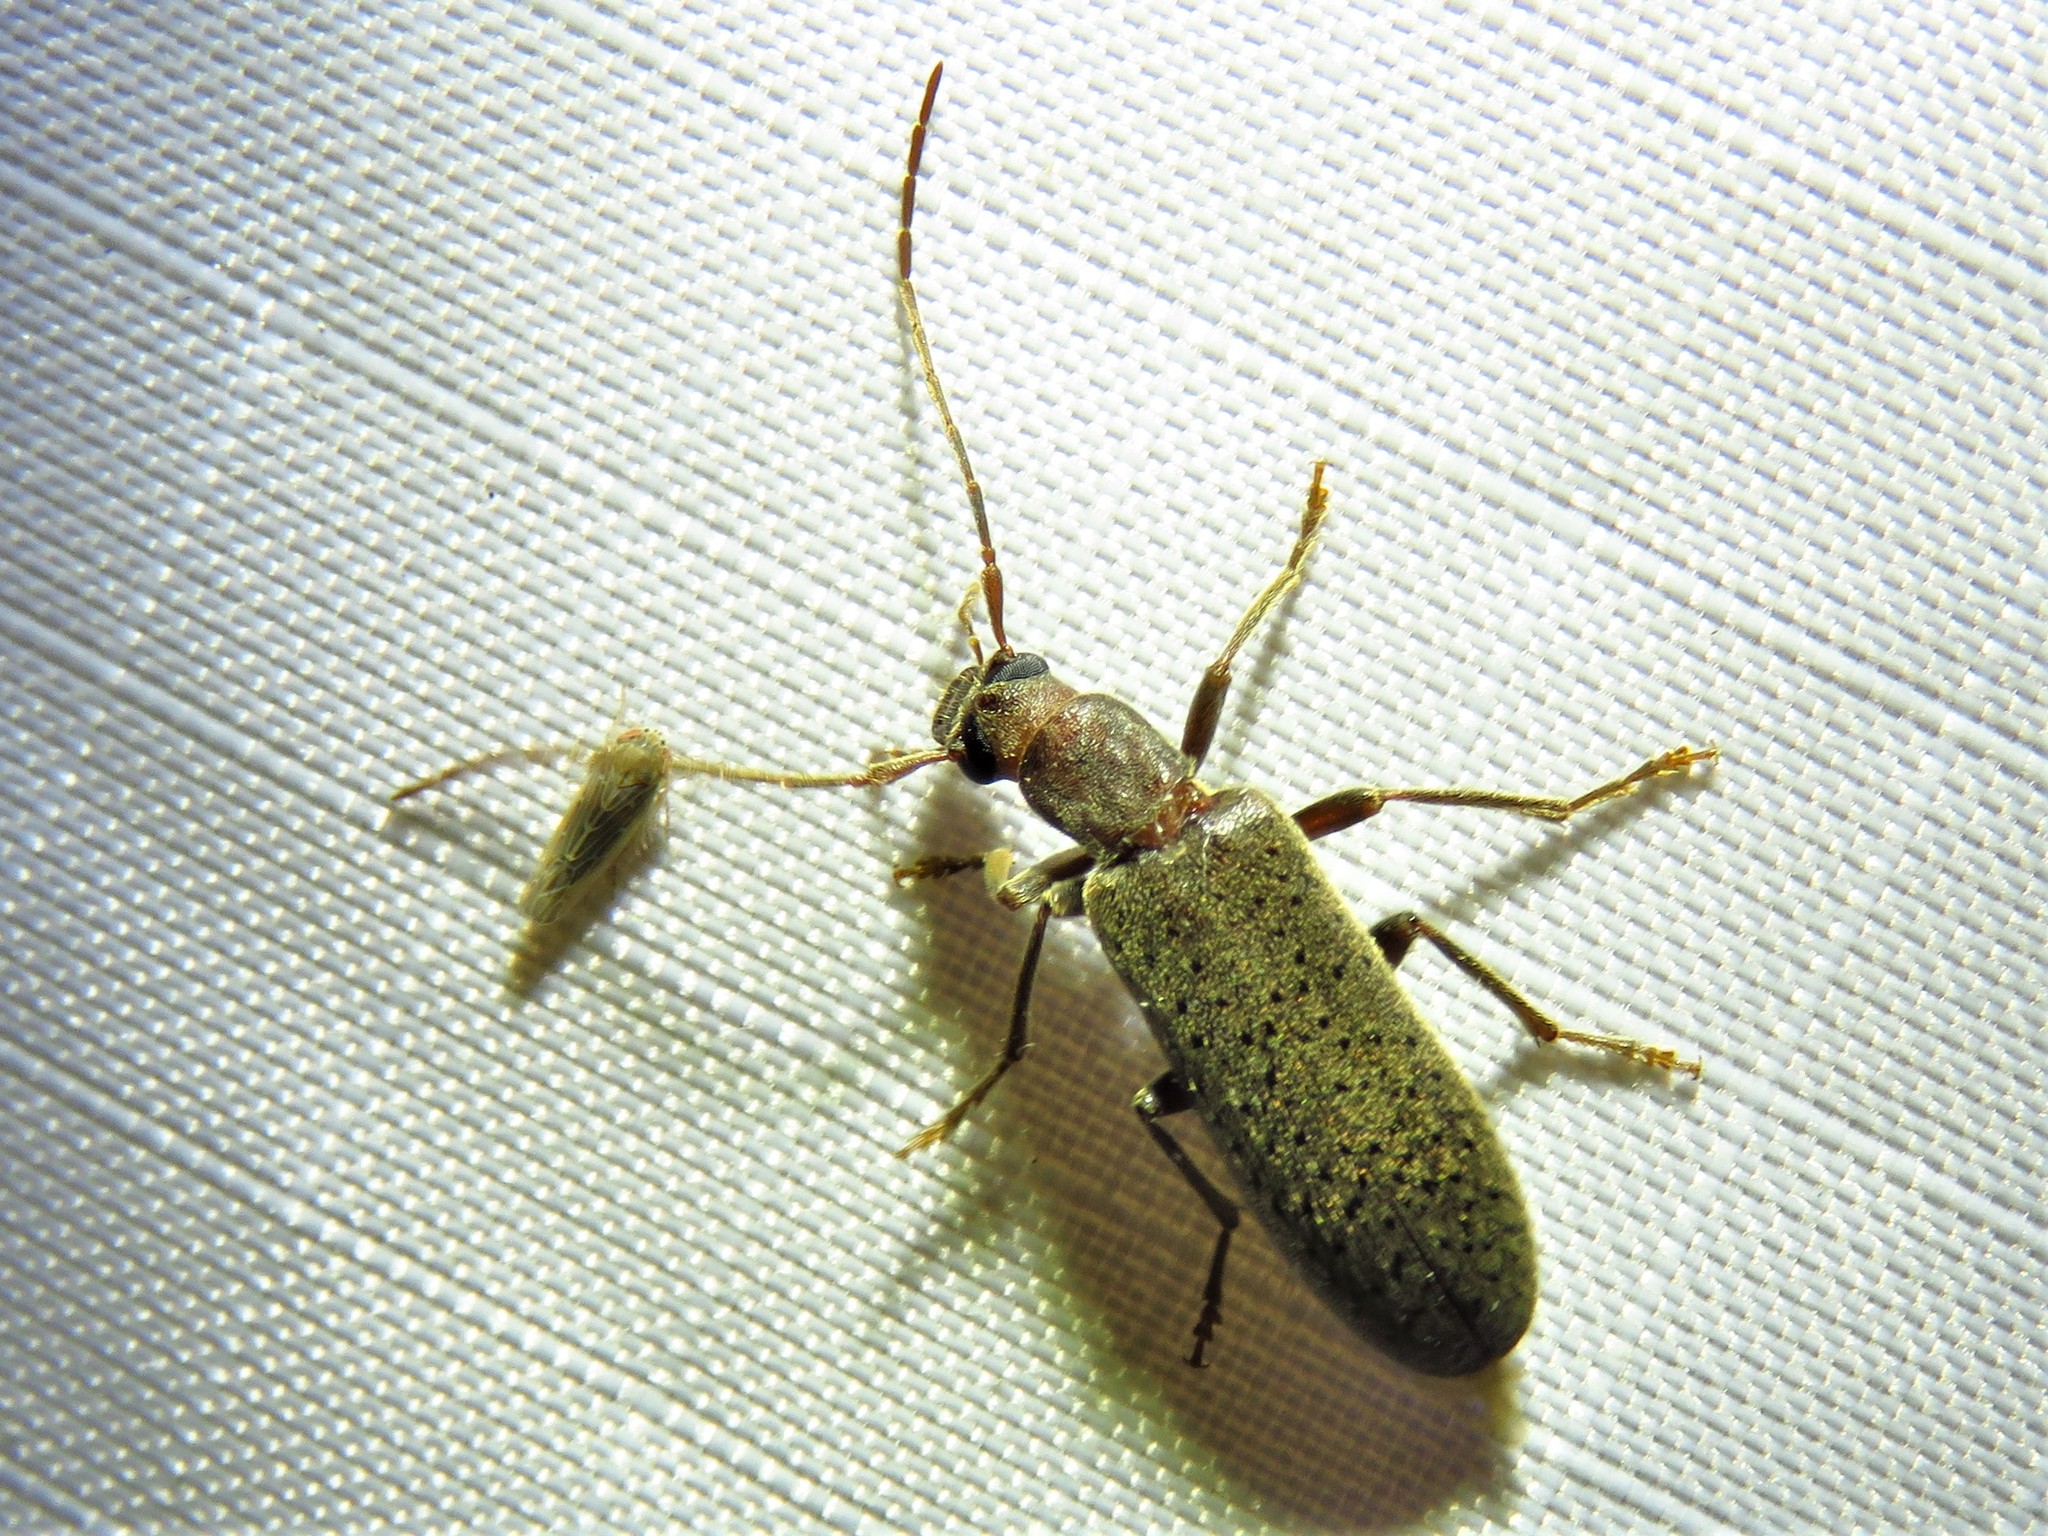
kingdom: Animalia
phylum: Arthropoda
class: Insecta
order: Coleoptera
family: Oedemeridae
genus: Sparedrus
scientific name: Sparedrus aspersus
